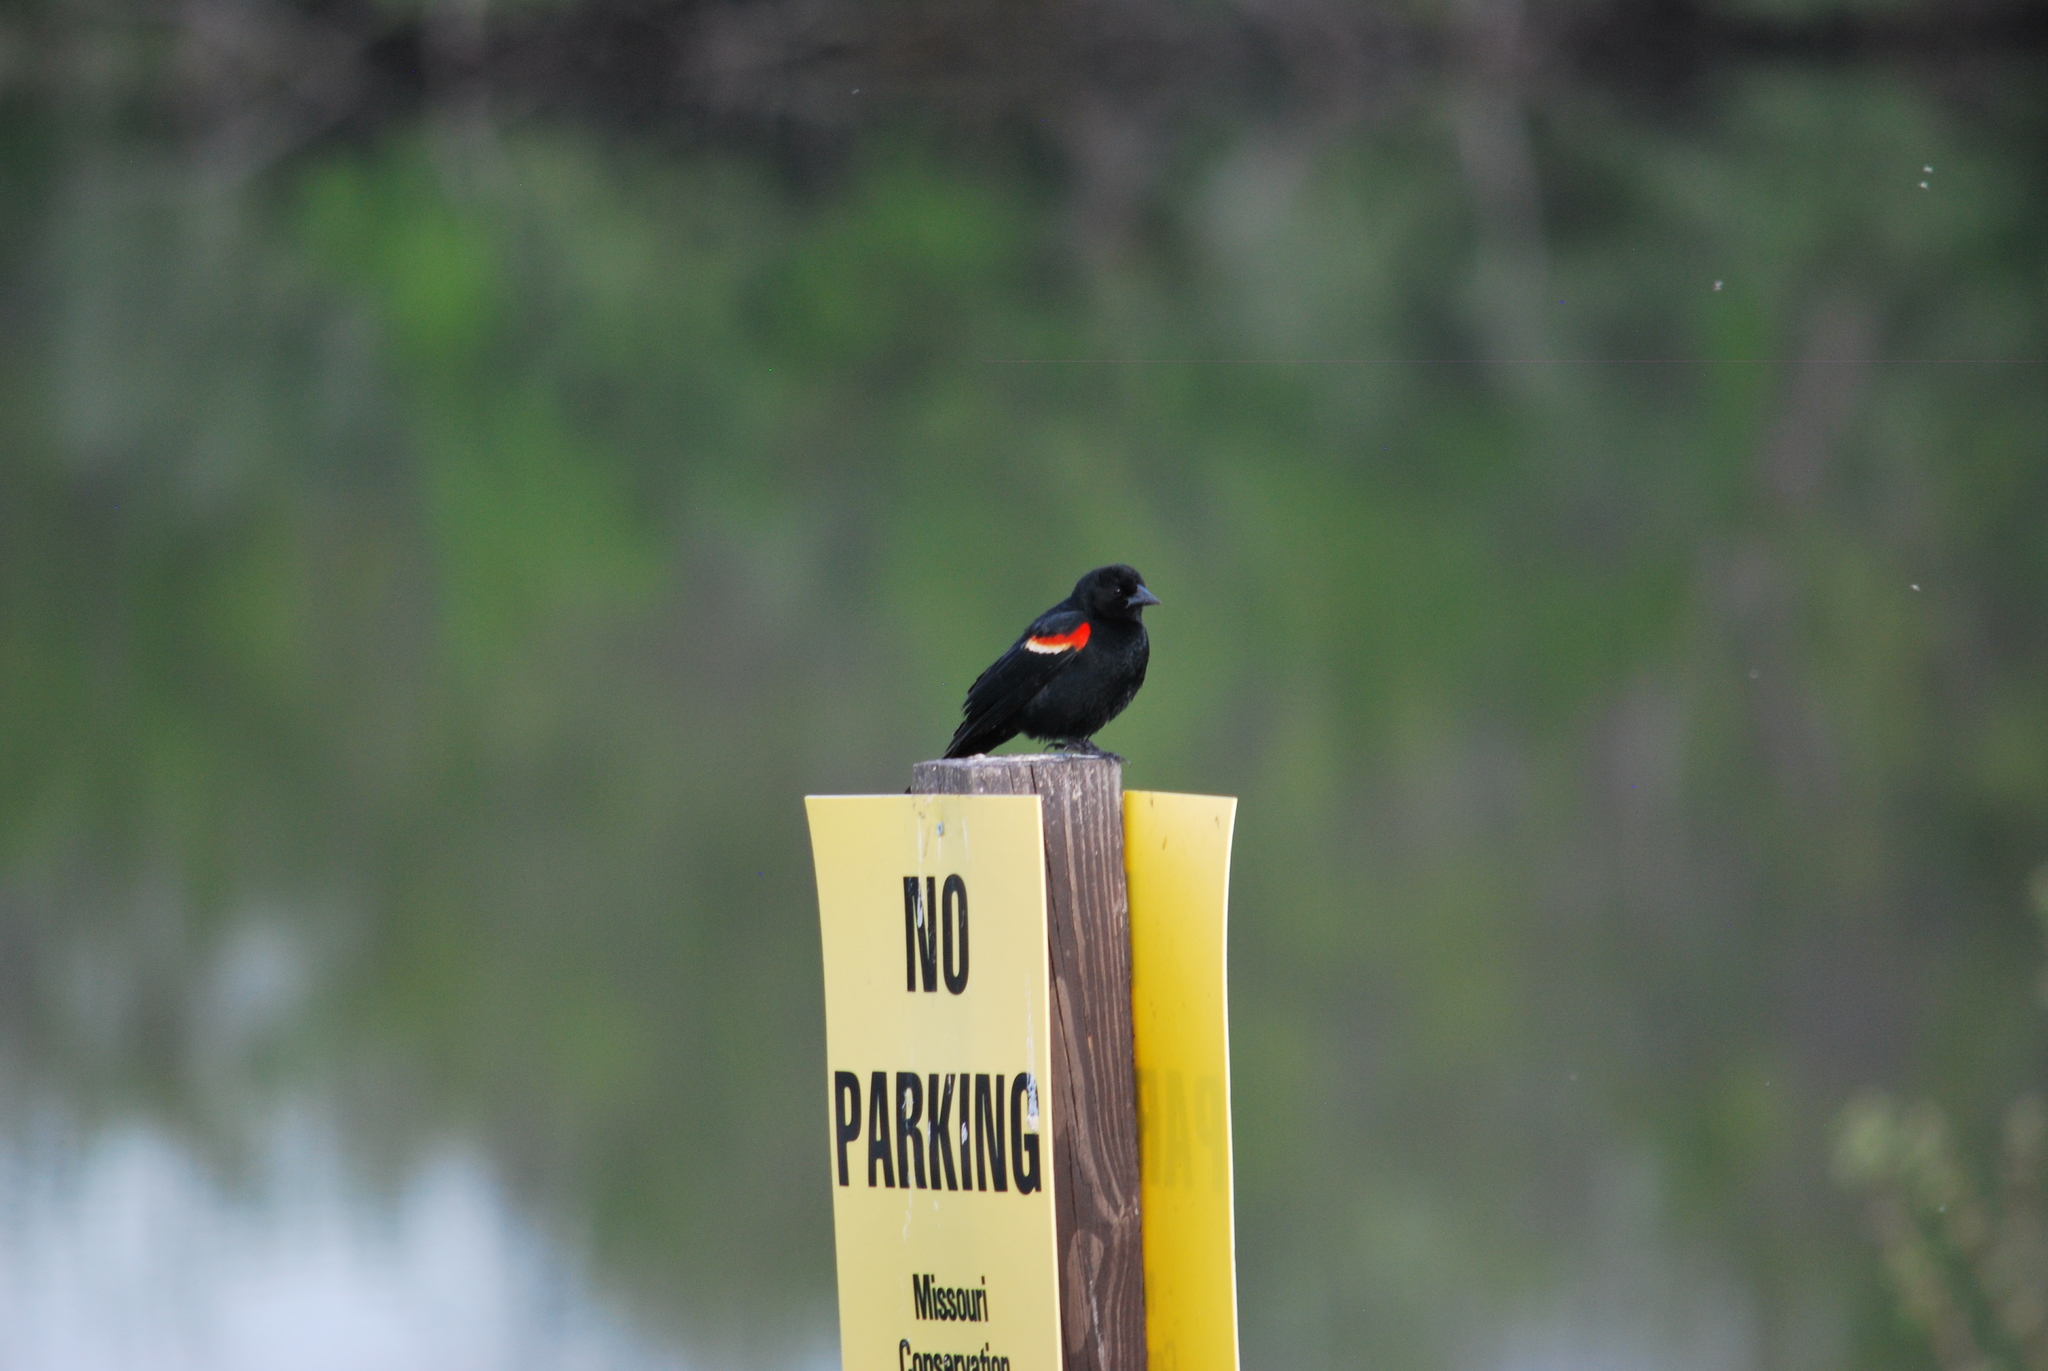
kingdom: Animalia
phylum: Chordata
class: Aves
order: Passeriformes
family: Icteridae
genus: Agelaius
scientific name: Agelaius phoeniceus
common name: Red-winged blackbird
